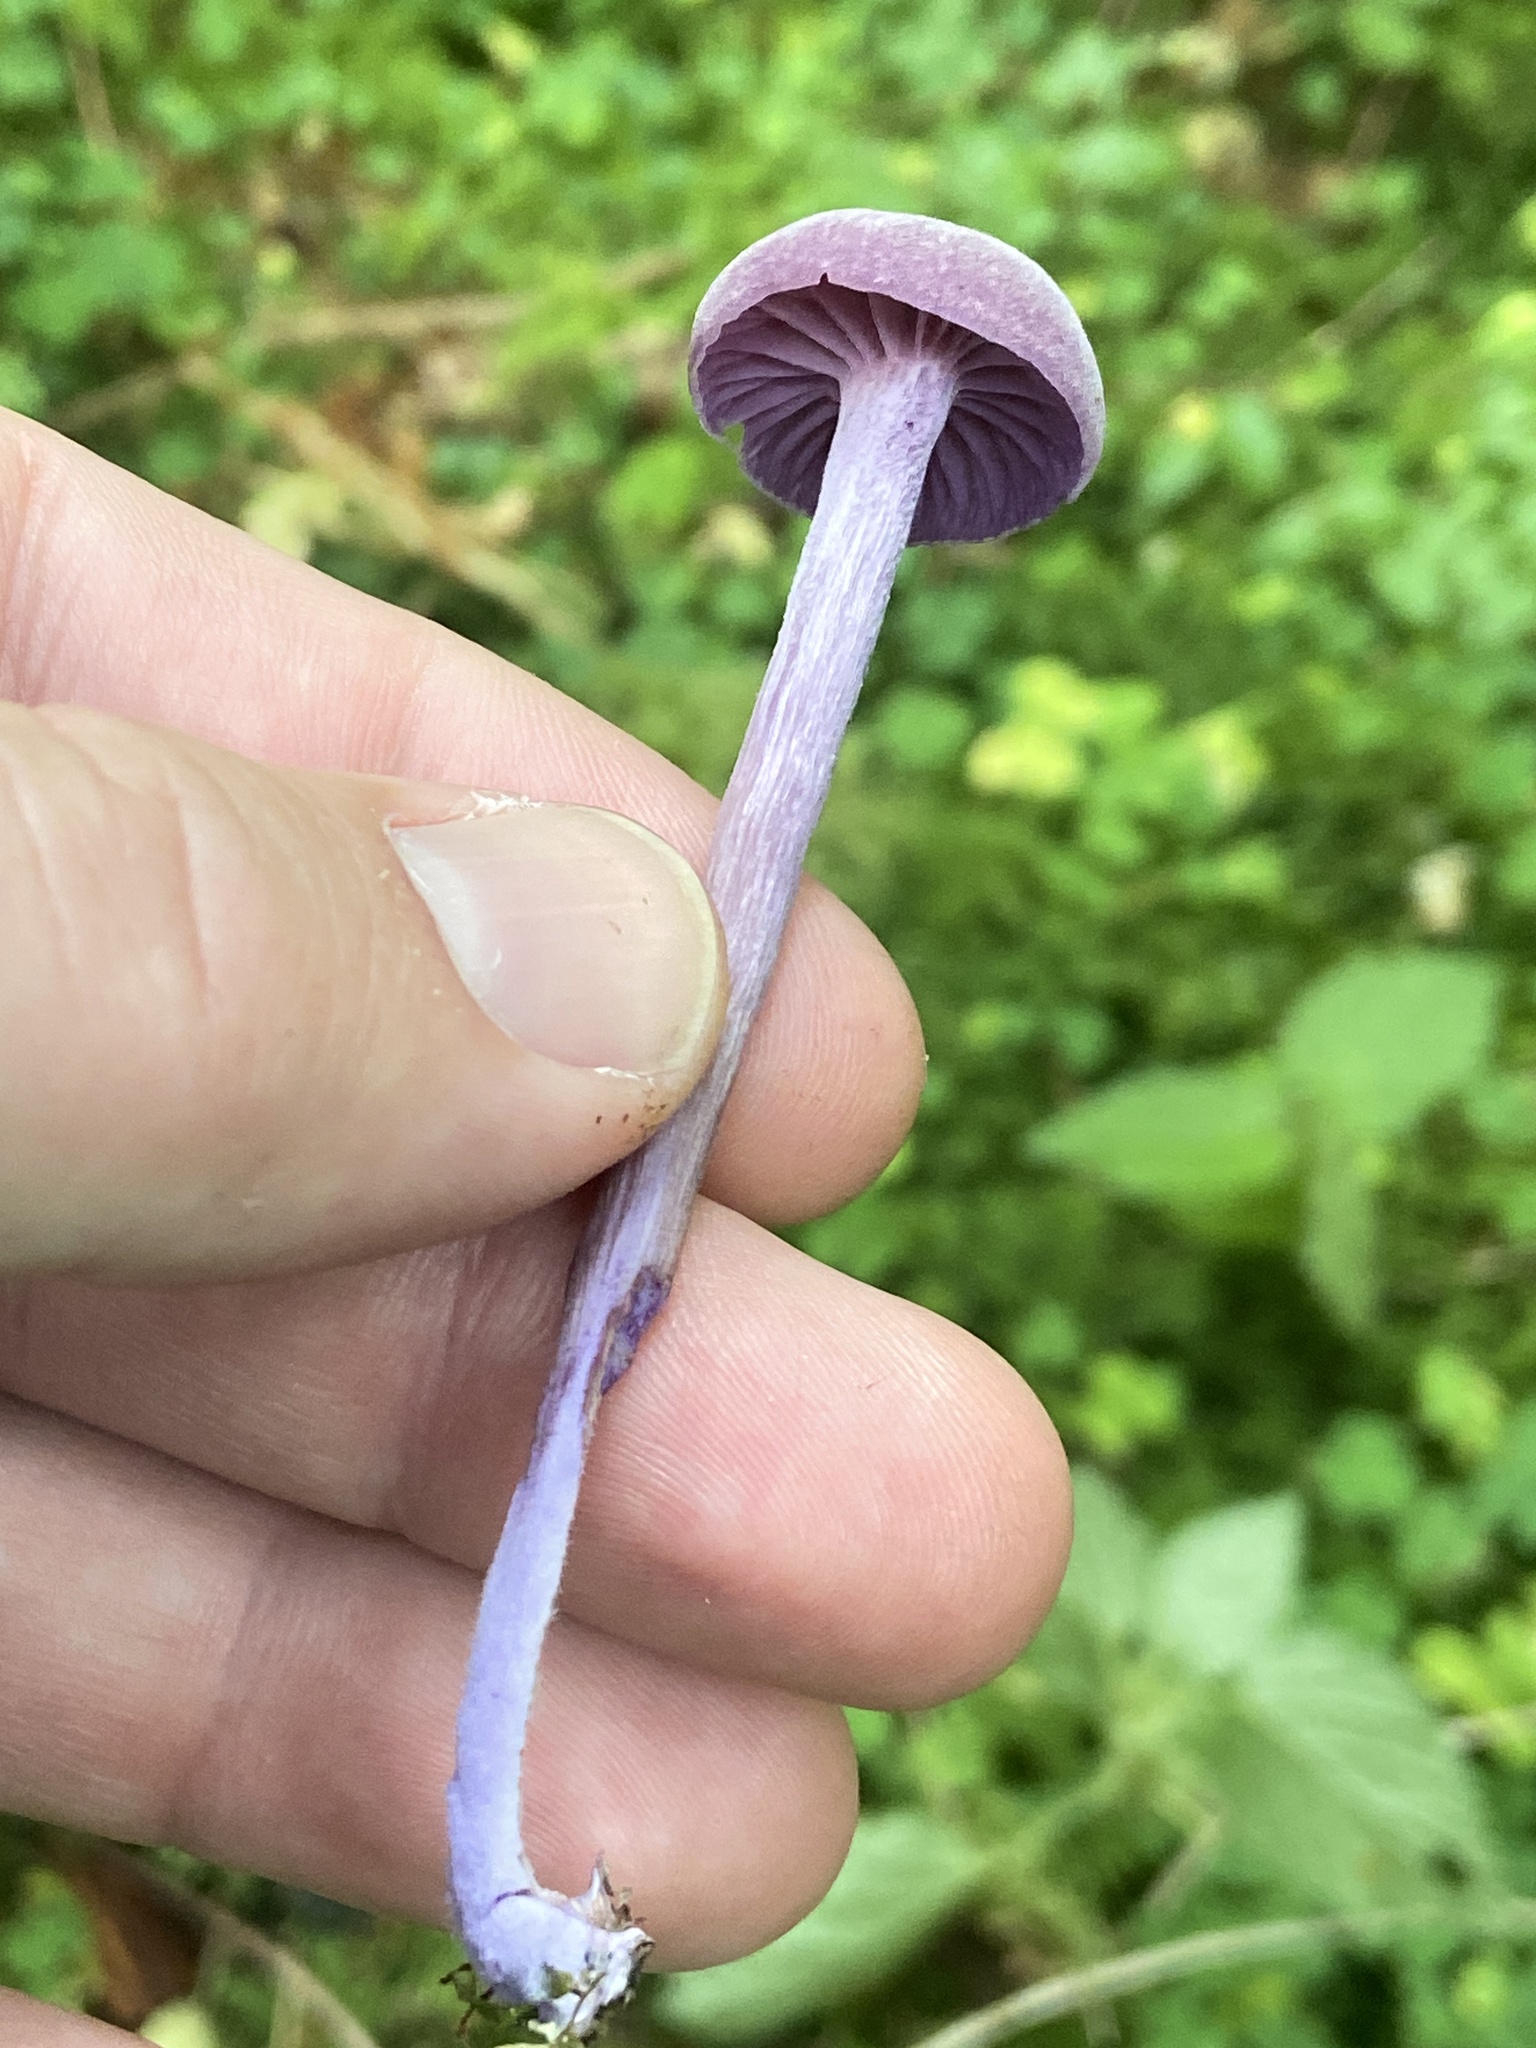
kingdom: Fungi
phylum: Basidiomycota
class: Agaricomycetes
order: Agaricales
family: Hydnangiaceae
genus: Laccaria
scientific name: Laccaria amethystina
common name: Amethyst deceiver
